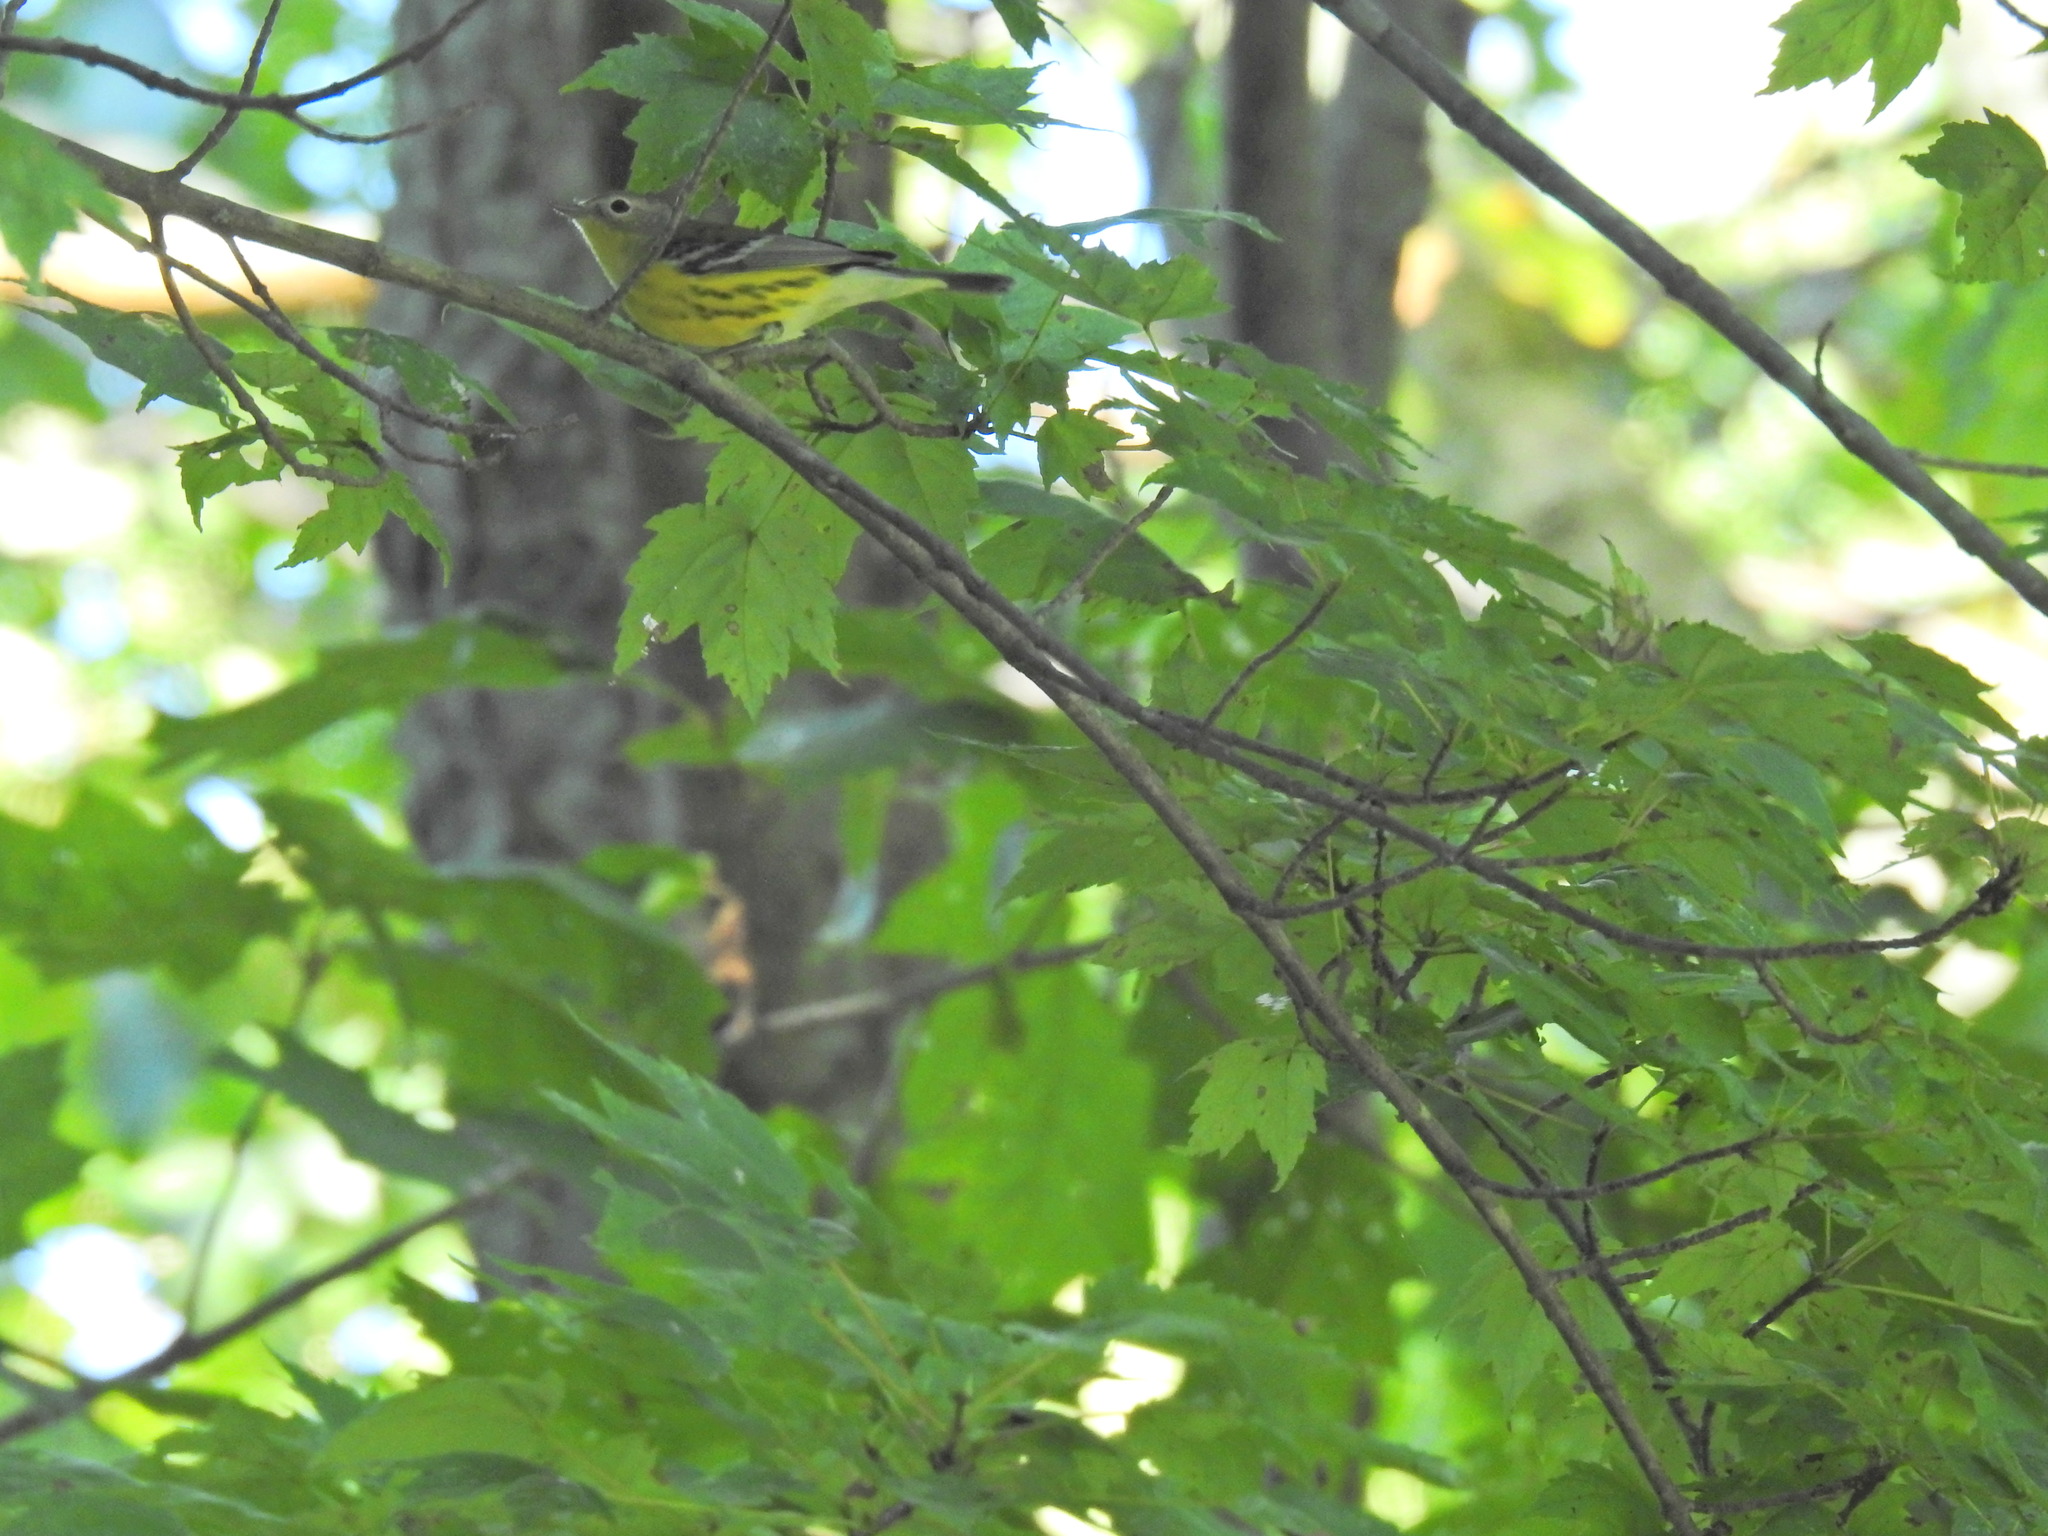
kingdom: Animalia
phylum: Chordata
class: Aves
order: Passeriformes
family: Parulidae
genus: Setophaga
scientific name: Setophaga magnolia
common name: Magnolia warbler
